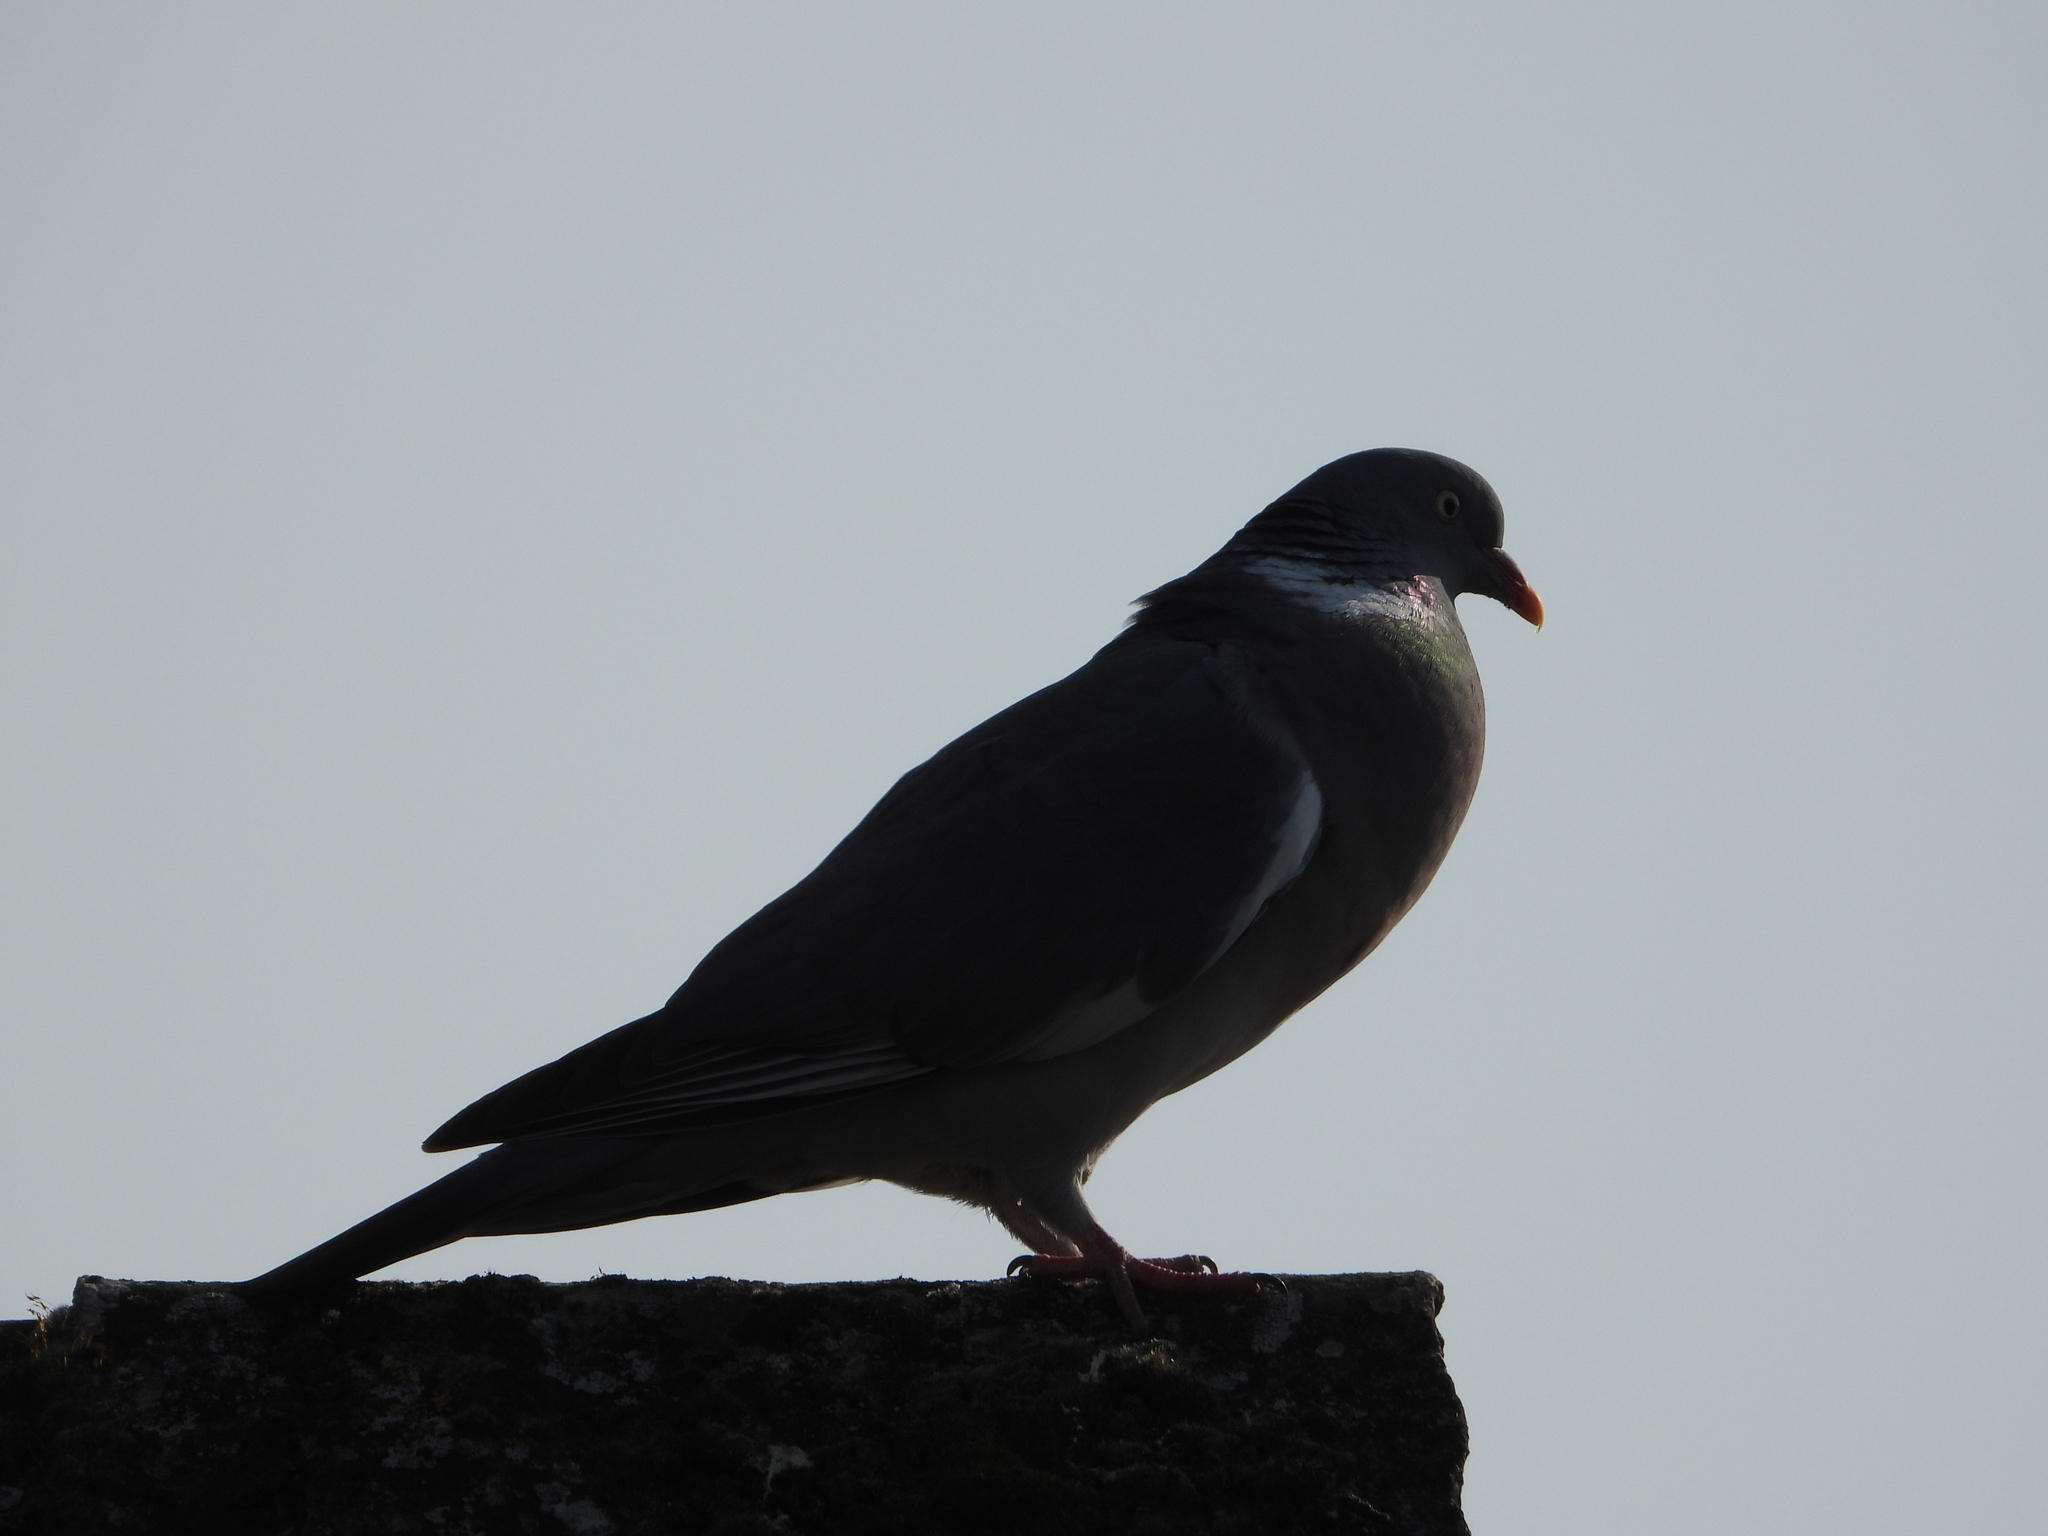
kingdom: Animalia
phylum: Chordata
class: Aves
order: Columbiformes
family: Columbidae
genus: Columba
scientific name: Columba palumbus
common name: Common wood pigeon
